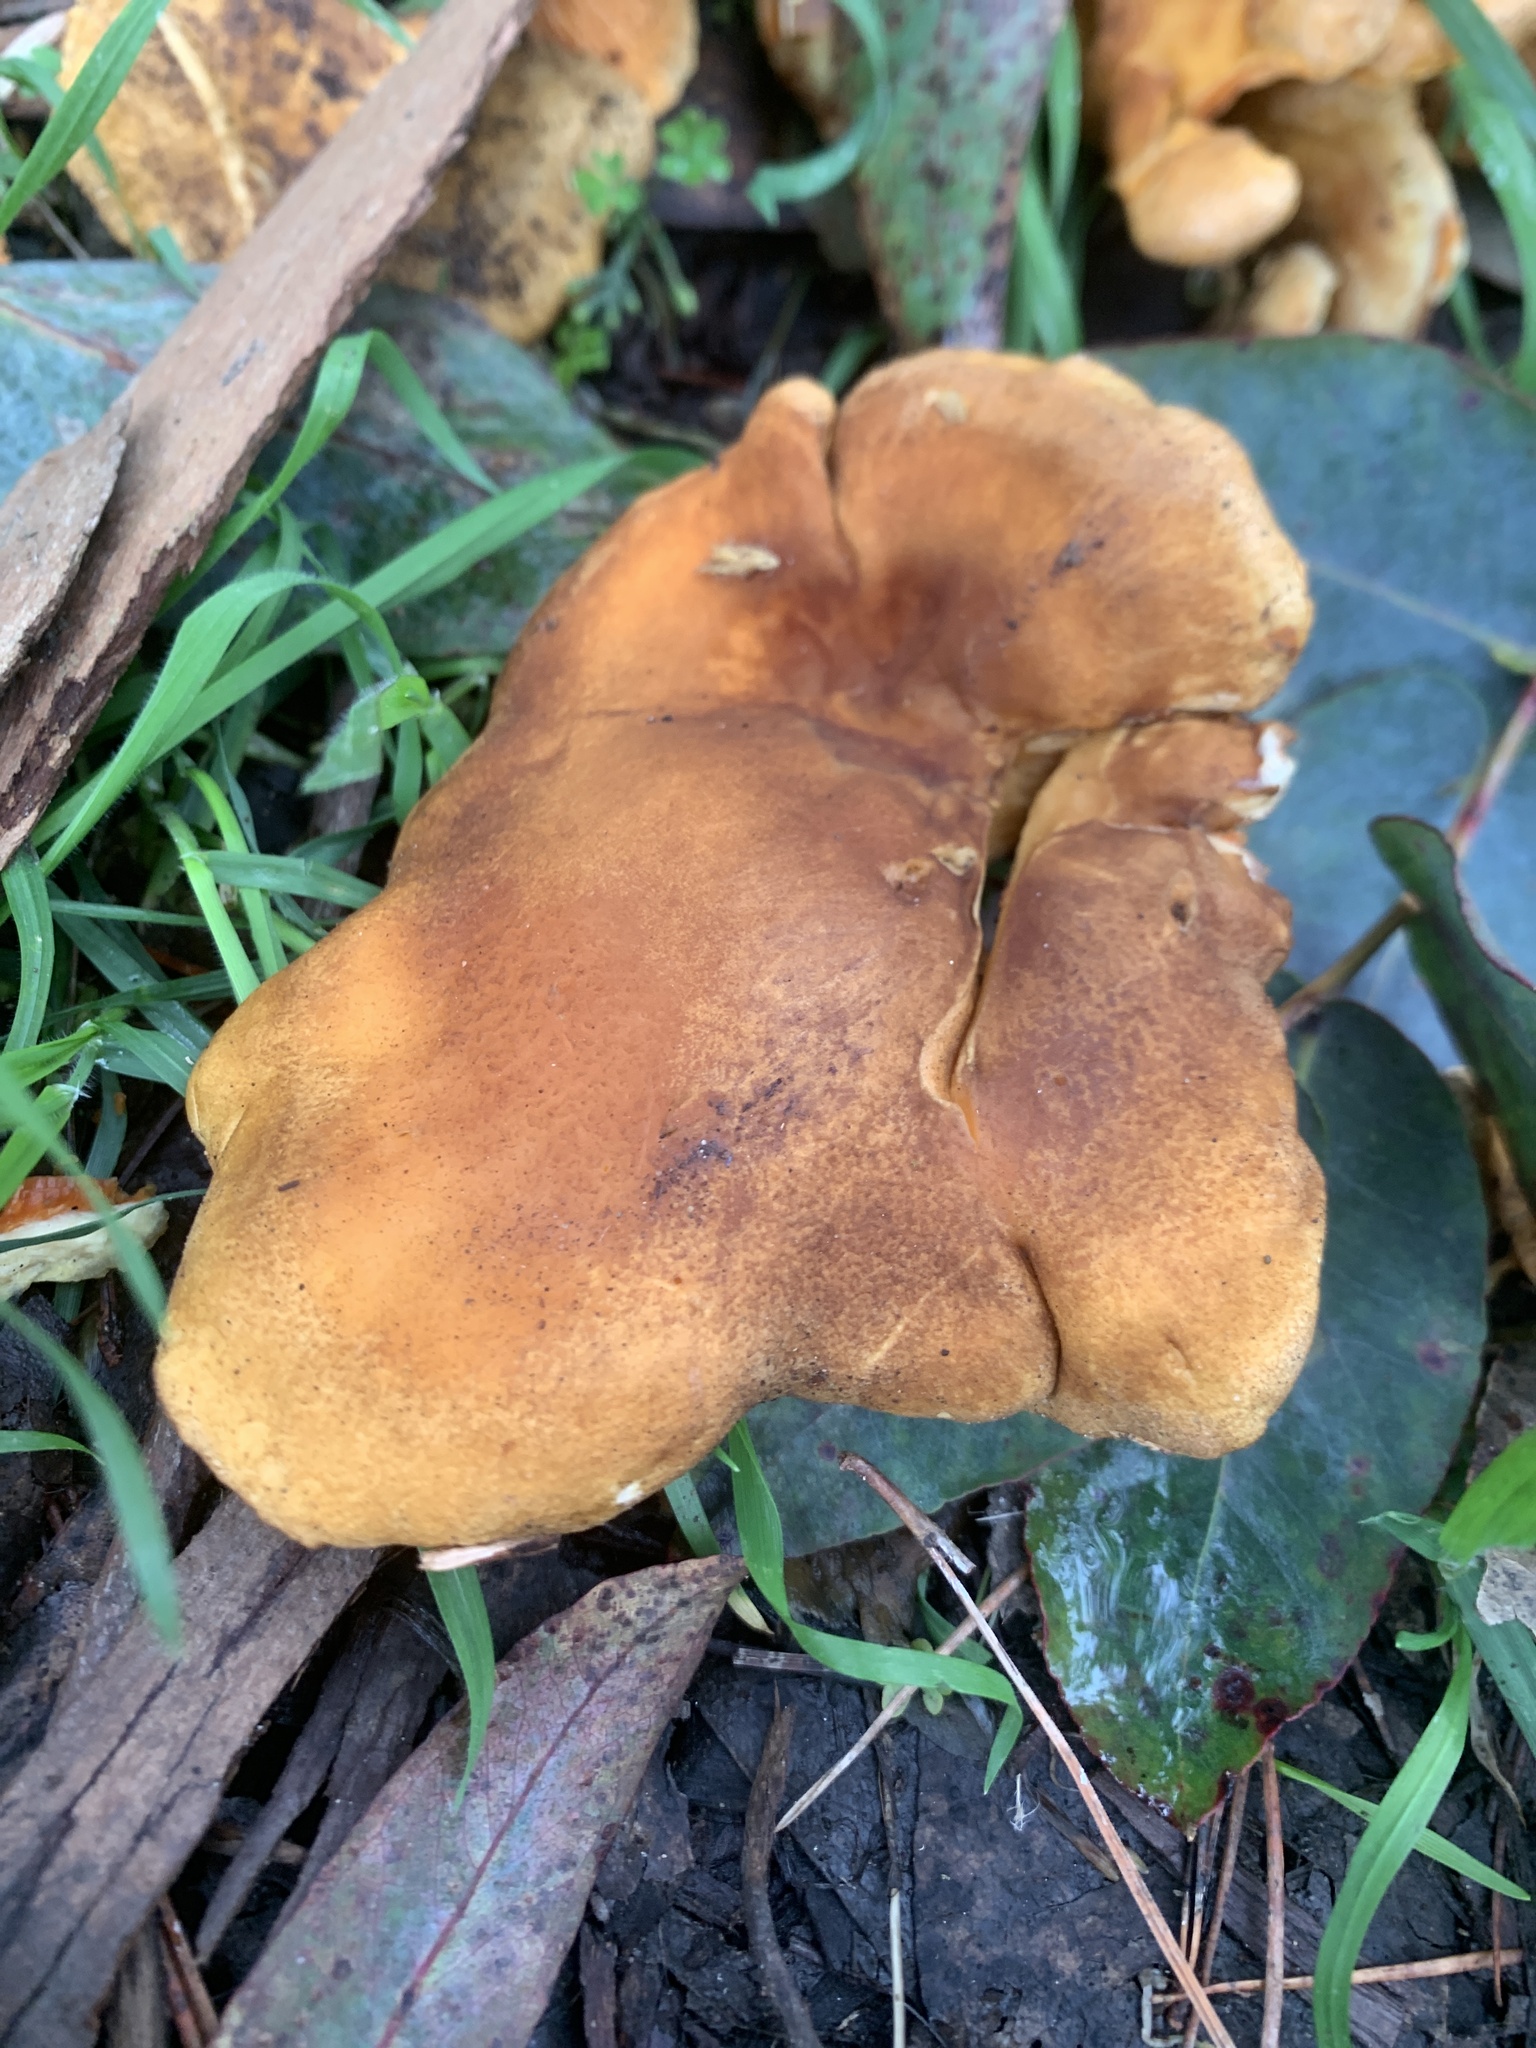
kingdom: Fungi
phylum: Basidiomycota
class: Agaricomycetes
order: Boletales
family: Hygrophoropsidaceae
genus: Hygrophoropsis
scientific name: Hygrophoropsis aurantiaca
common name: False chanterelle
